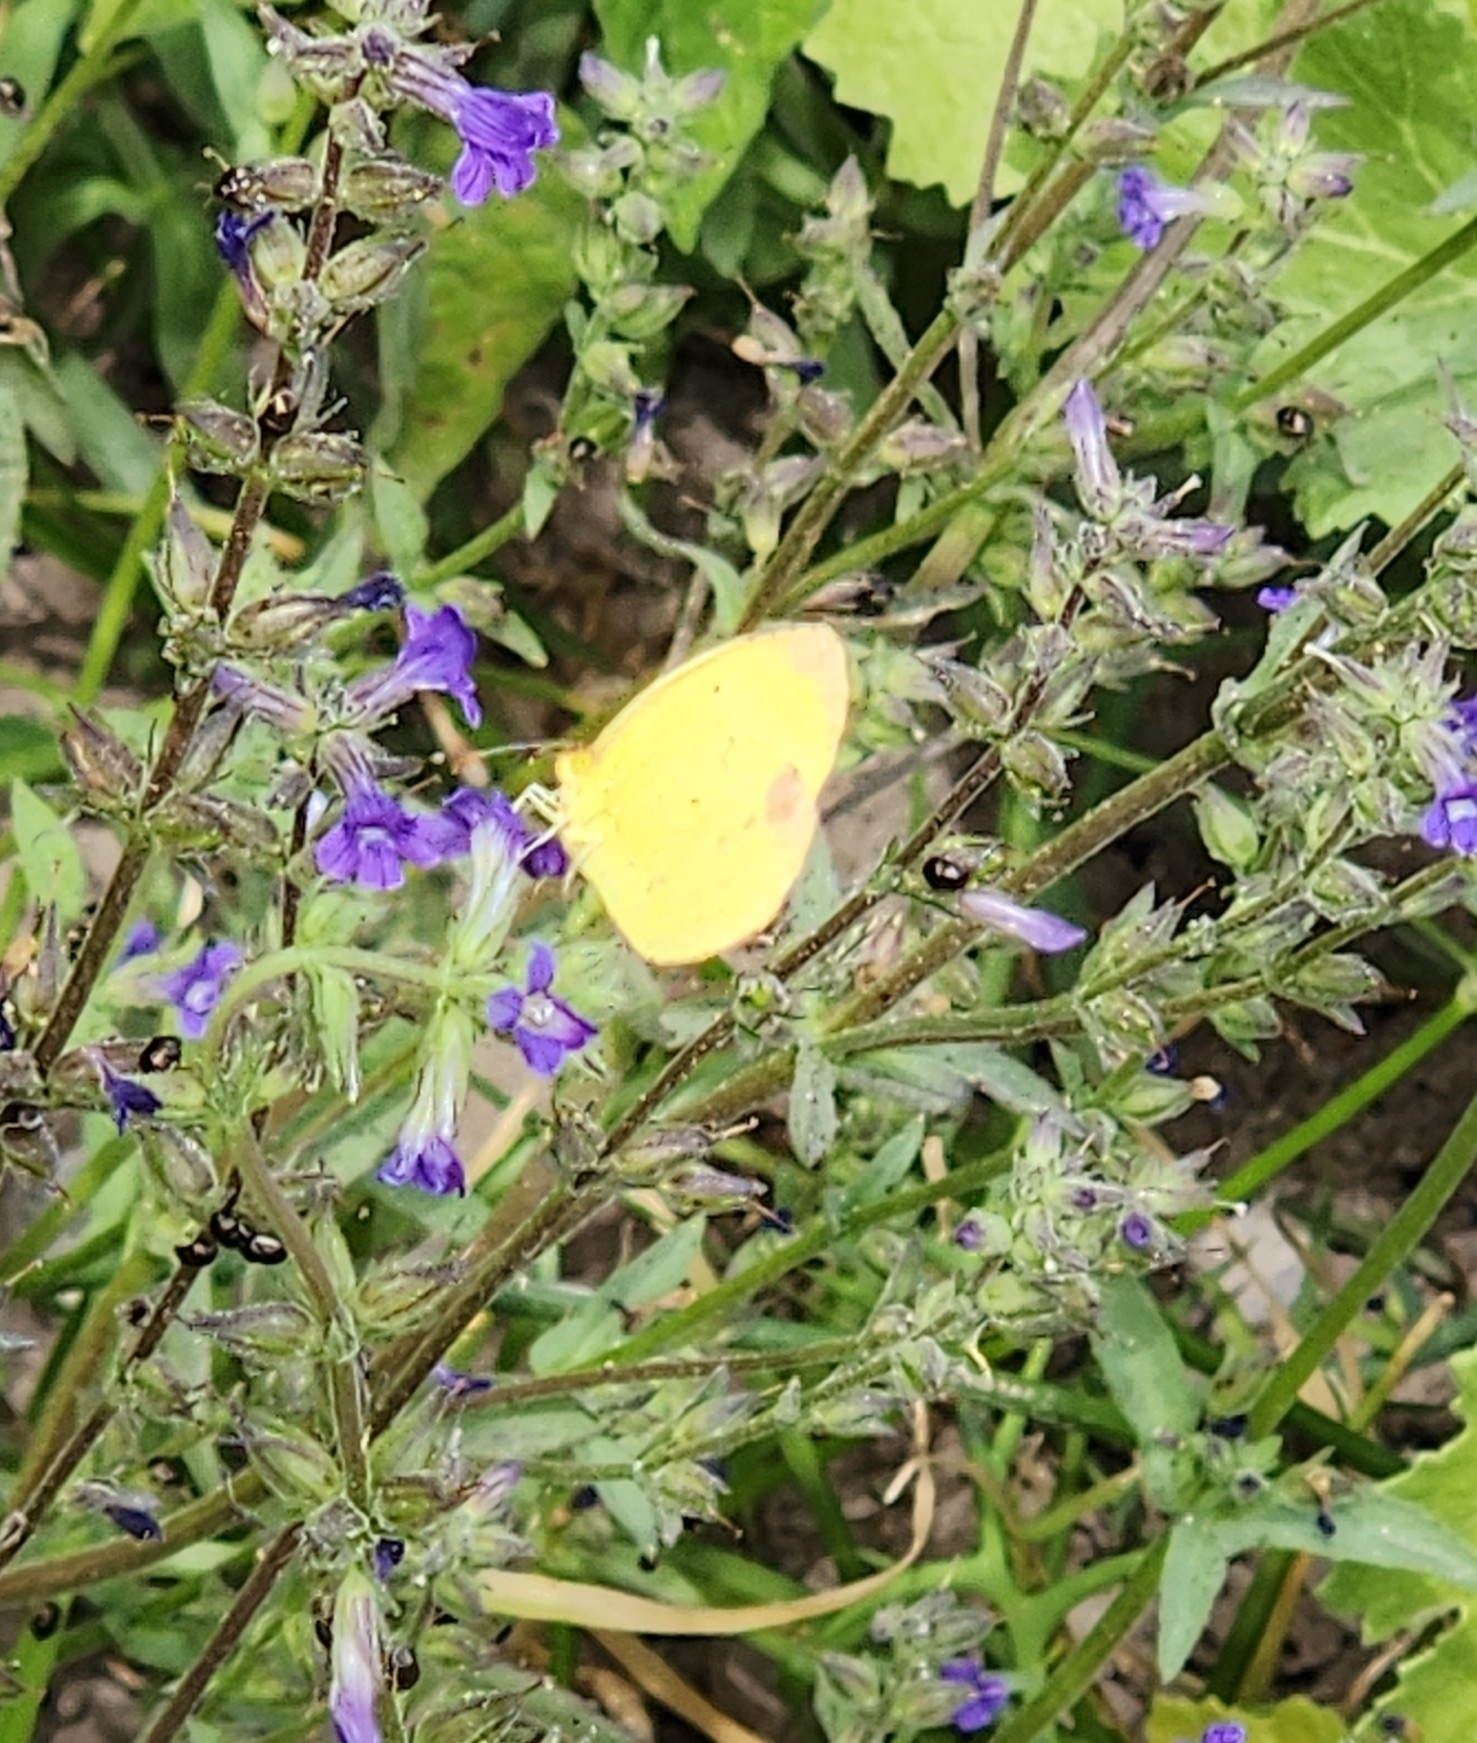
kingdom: Animalia
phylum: Arthropoda
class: Insecta
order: Lepidoptera
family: Pieridae
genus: Pyrisitia
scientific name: Pyrisitia nise
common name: Mimosa yellow
